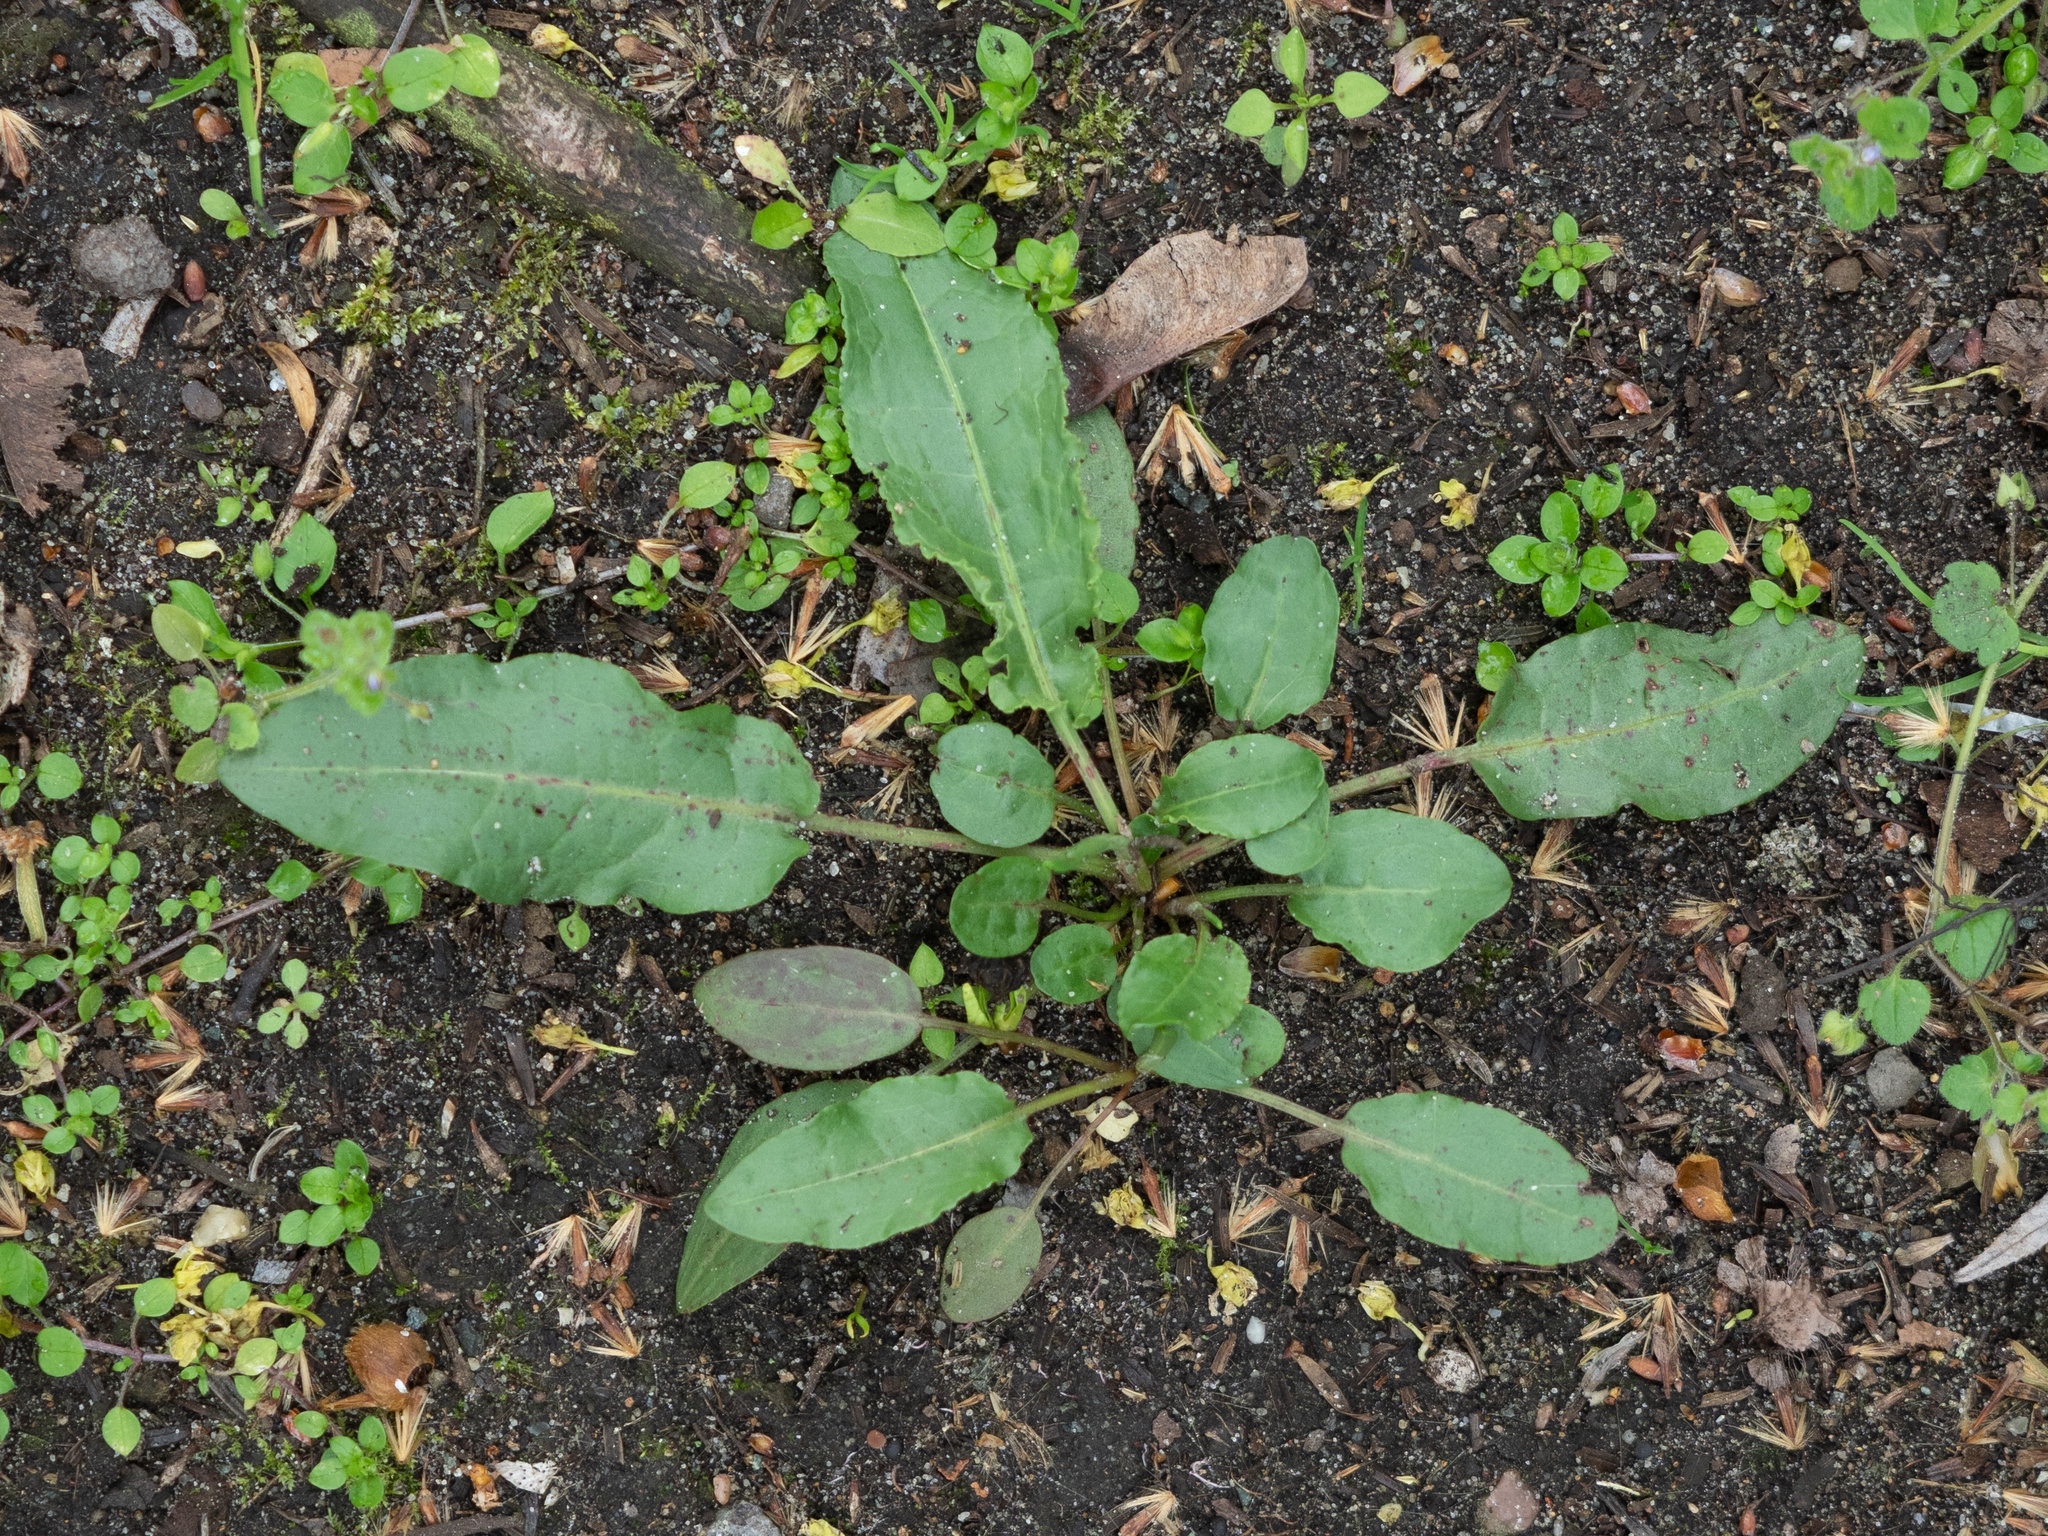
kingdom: Plantae
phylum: Tracheophyta
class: Magnoliopsida
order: Caryophyllales
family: Polygonaceae
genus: Rumex
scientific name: Rumex obtusifolius
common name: Bitter dock
